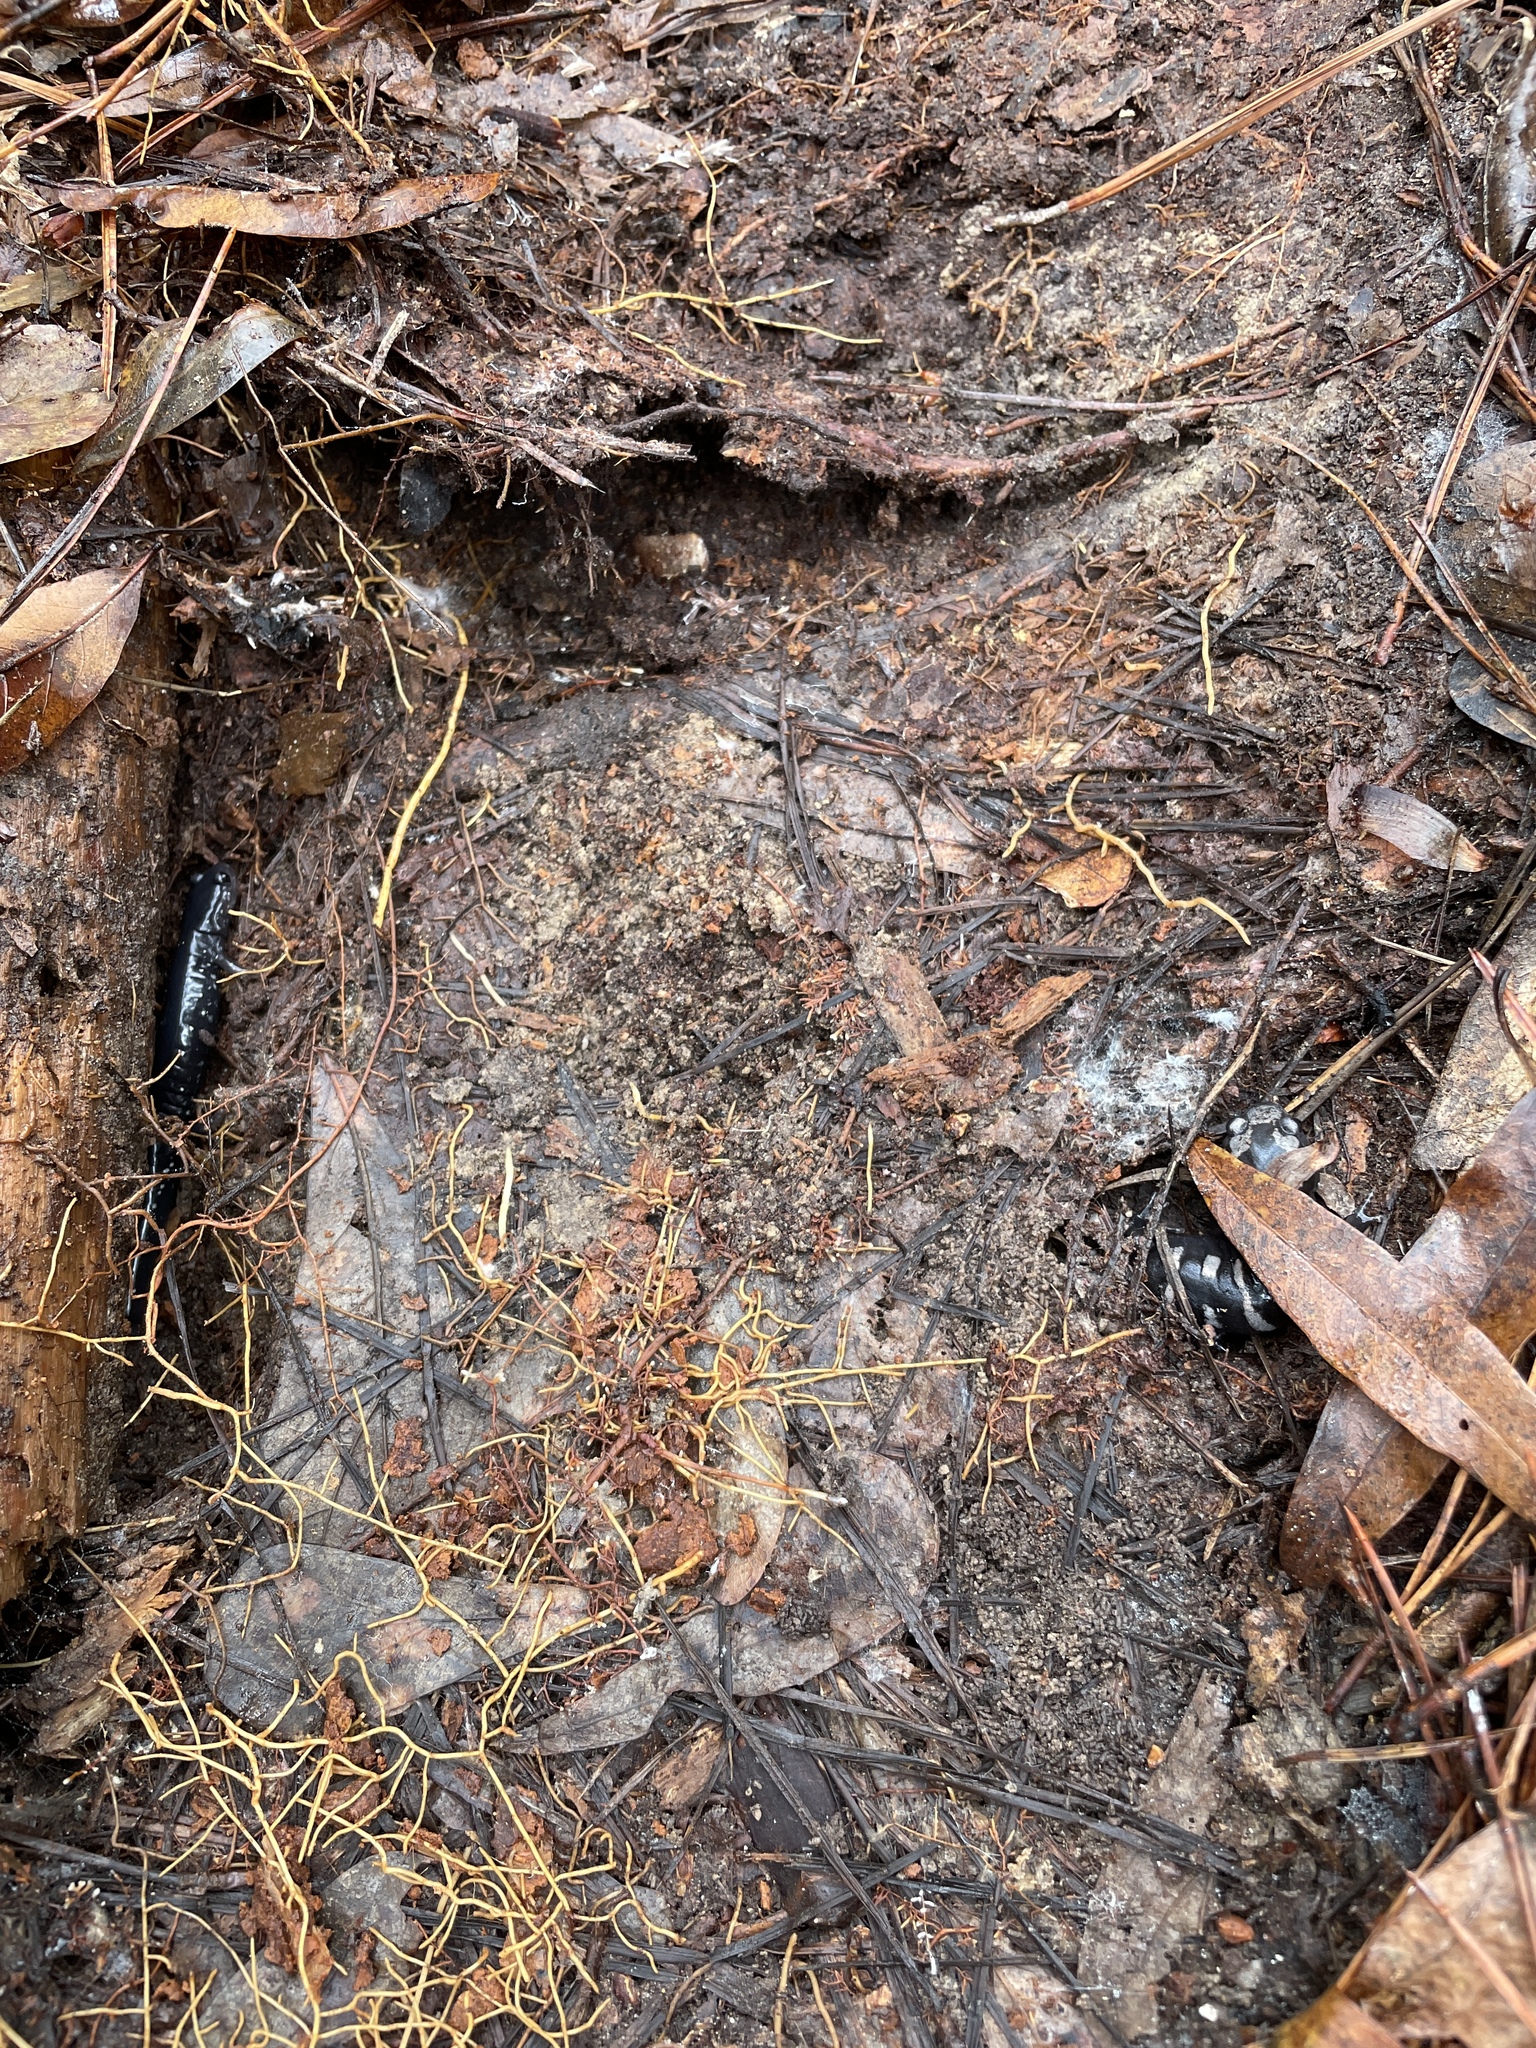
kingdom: Animalia
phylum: Chordata
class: Amphibia
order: Caudata
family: Plethodontidae
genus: Plethodon
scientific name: Plethodon mississippi
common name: Mississippi slimy salamander
